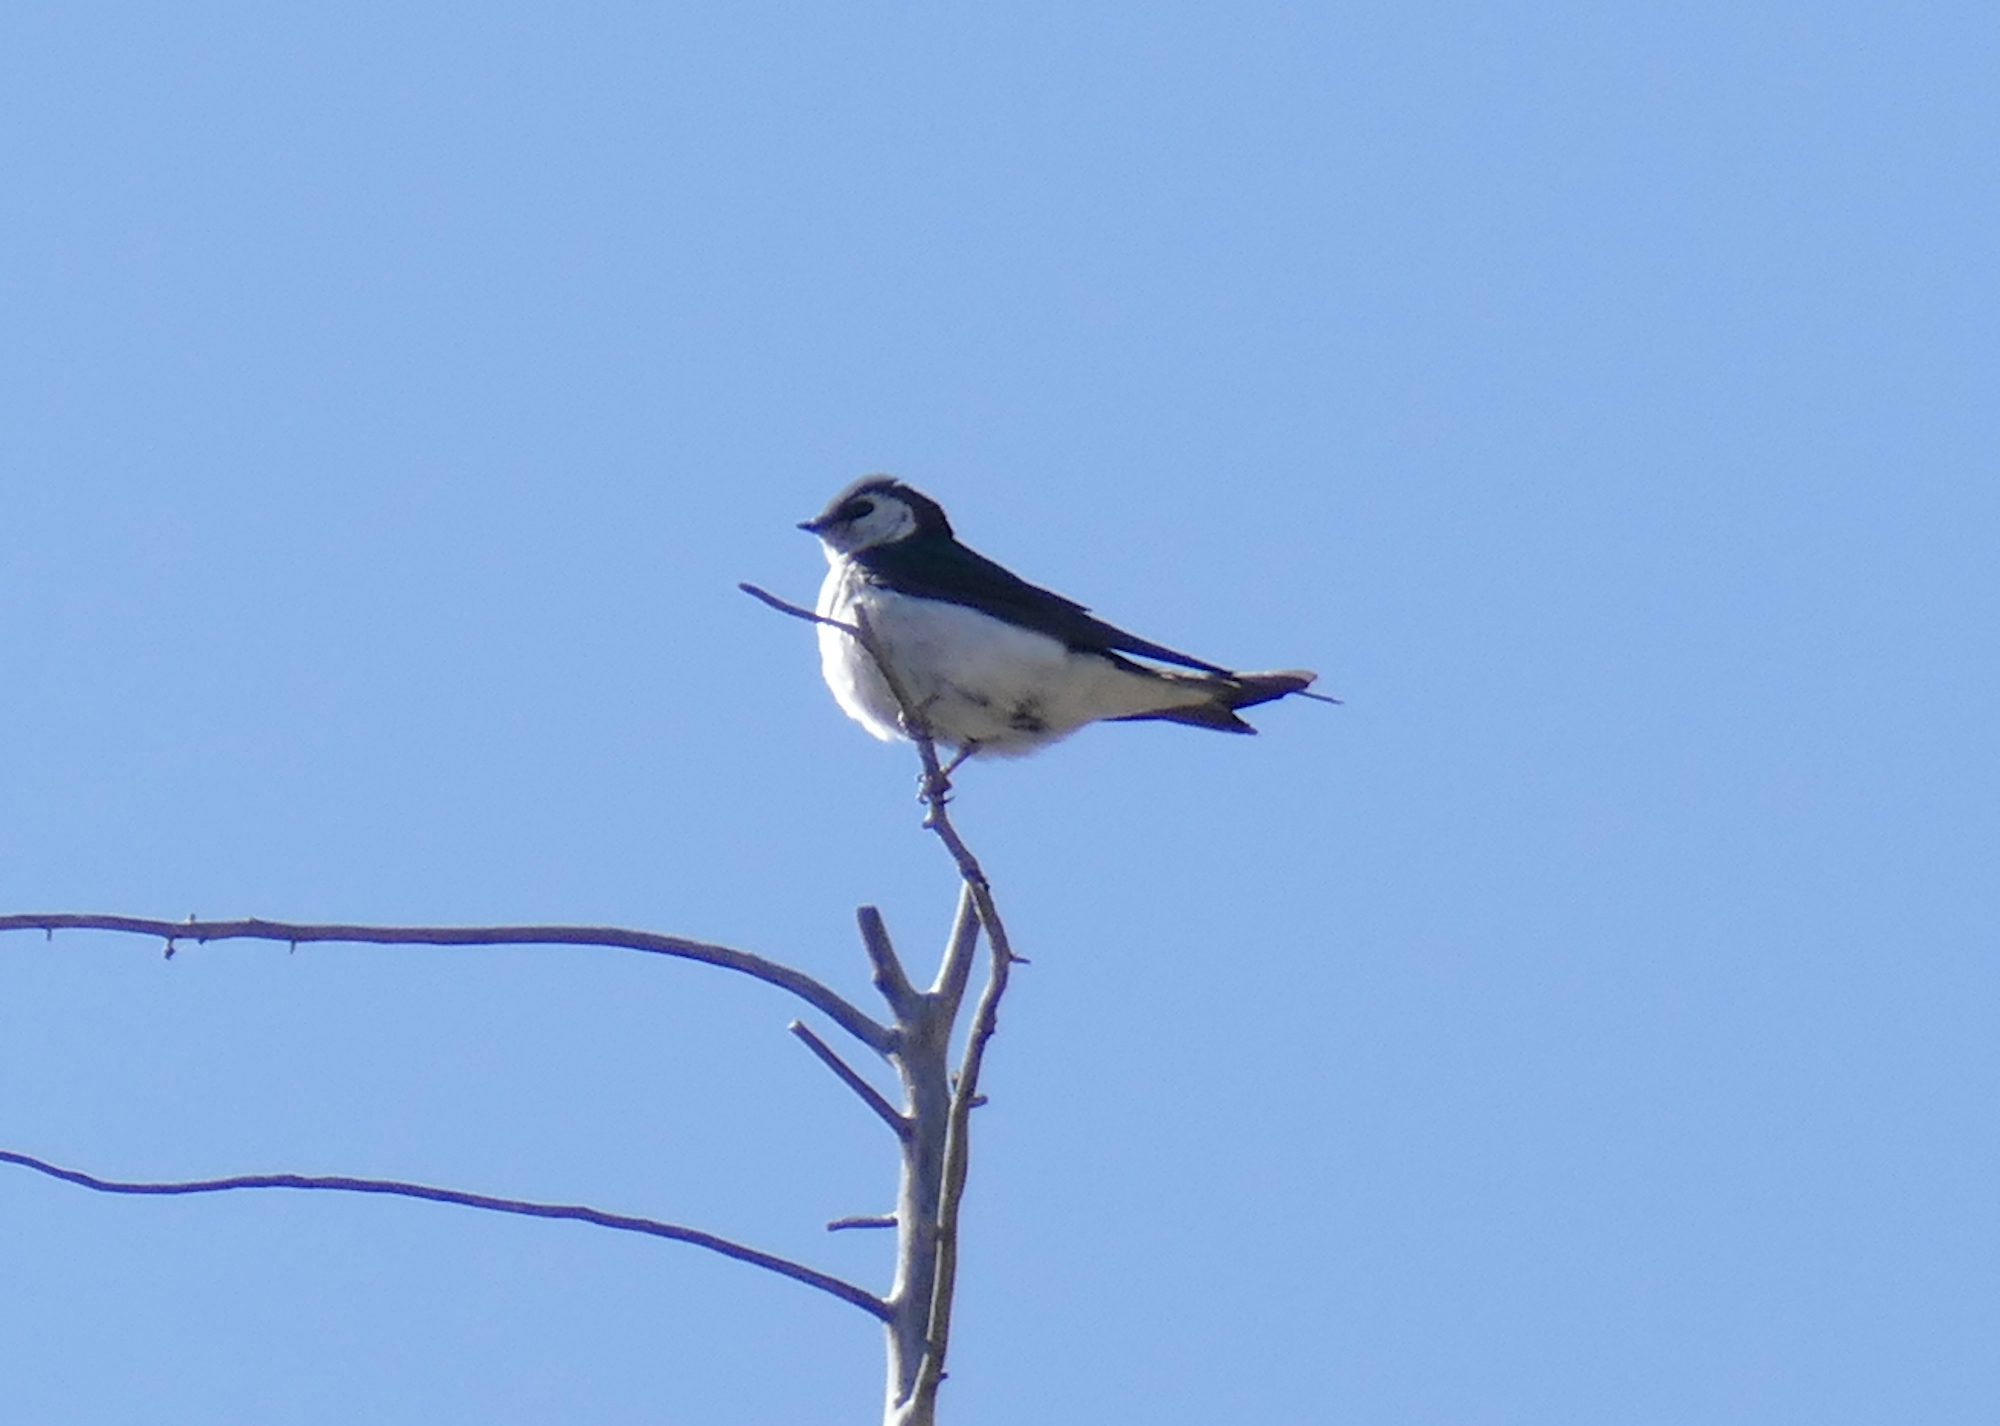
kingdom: Animalia
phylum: Chordata
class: Aves
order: Passeriformes
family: Hirundinidae
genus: Tachycineta
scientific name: Tachycineta thalassina
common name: Violet-green swallow
